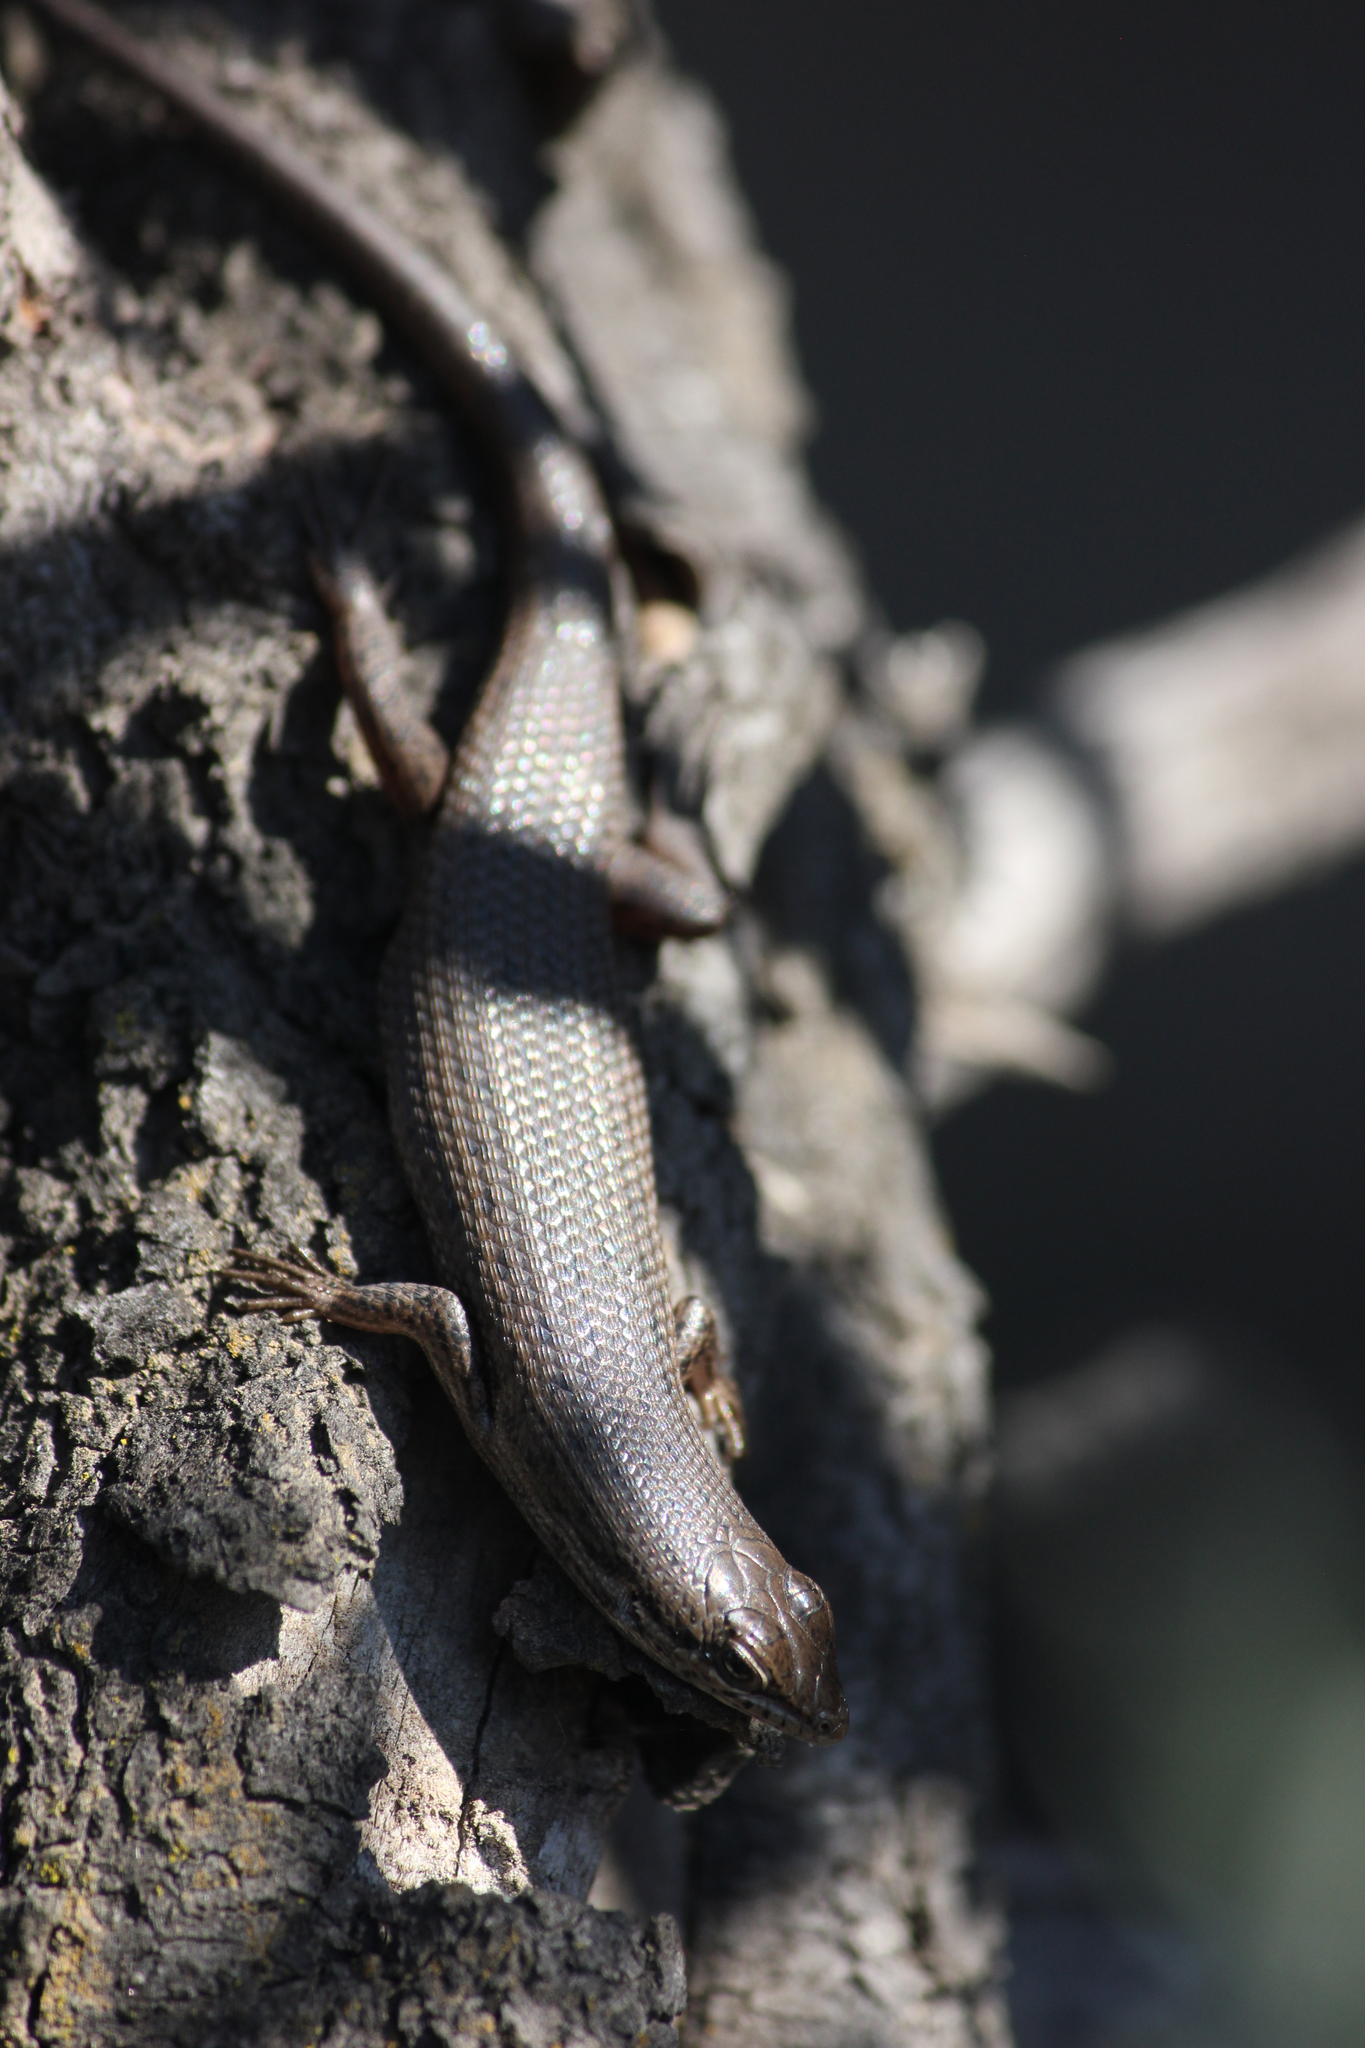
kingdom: Animalia
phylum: Chordata
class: Squamata
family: Scincidae
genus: Trachylepis
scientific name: Trachylepis variegata
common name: Variegated skink
